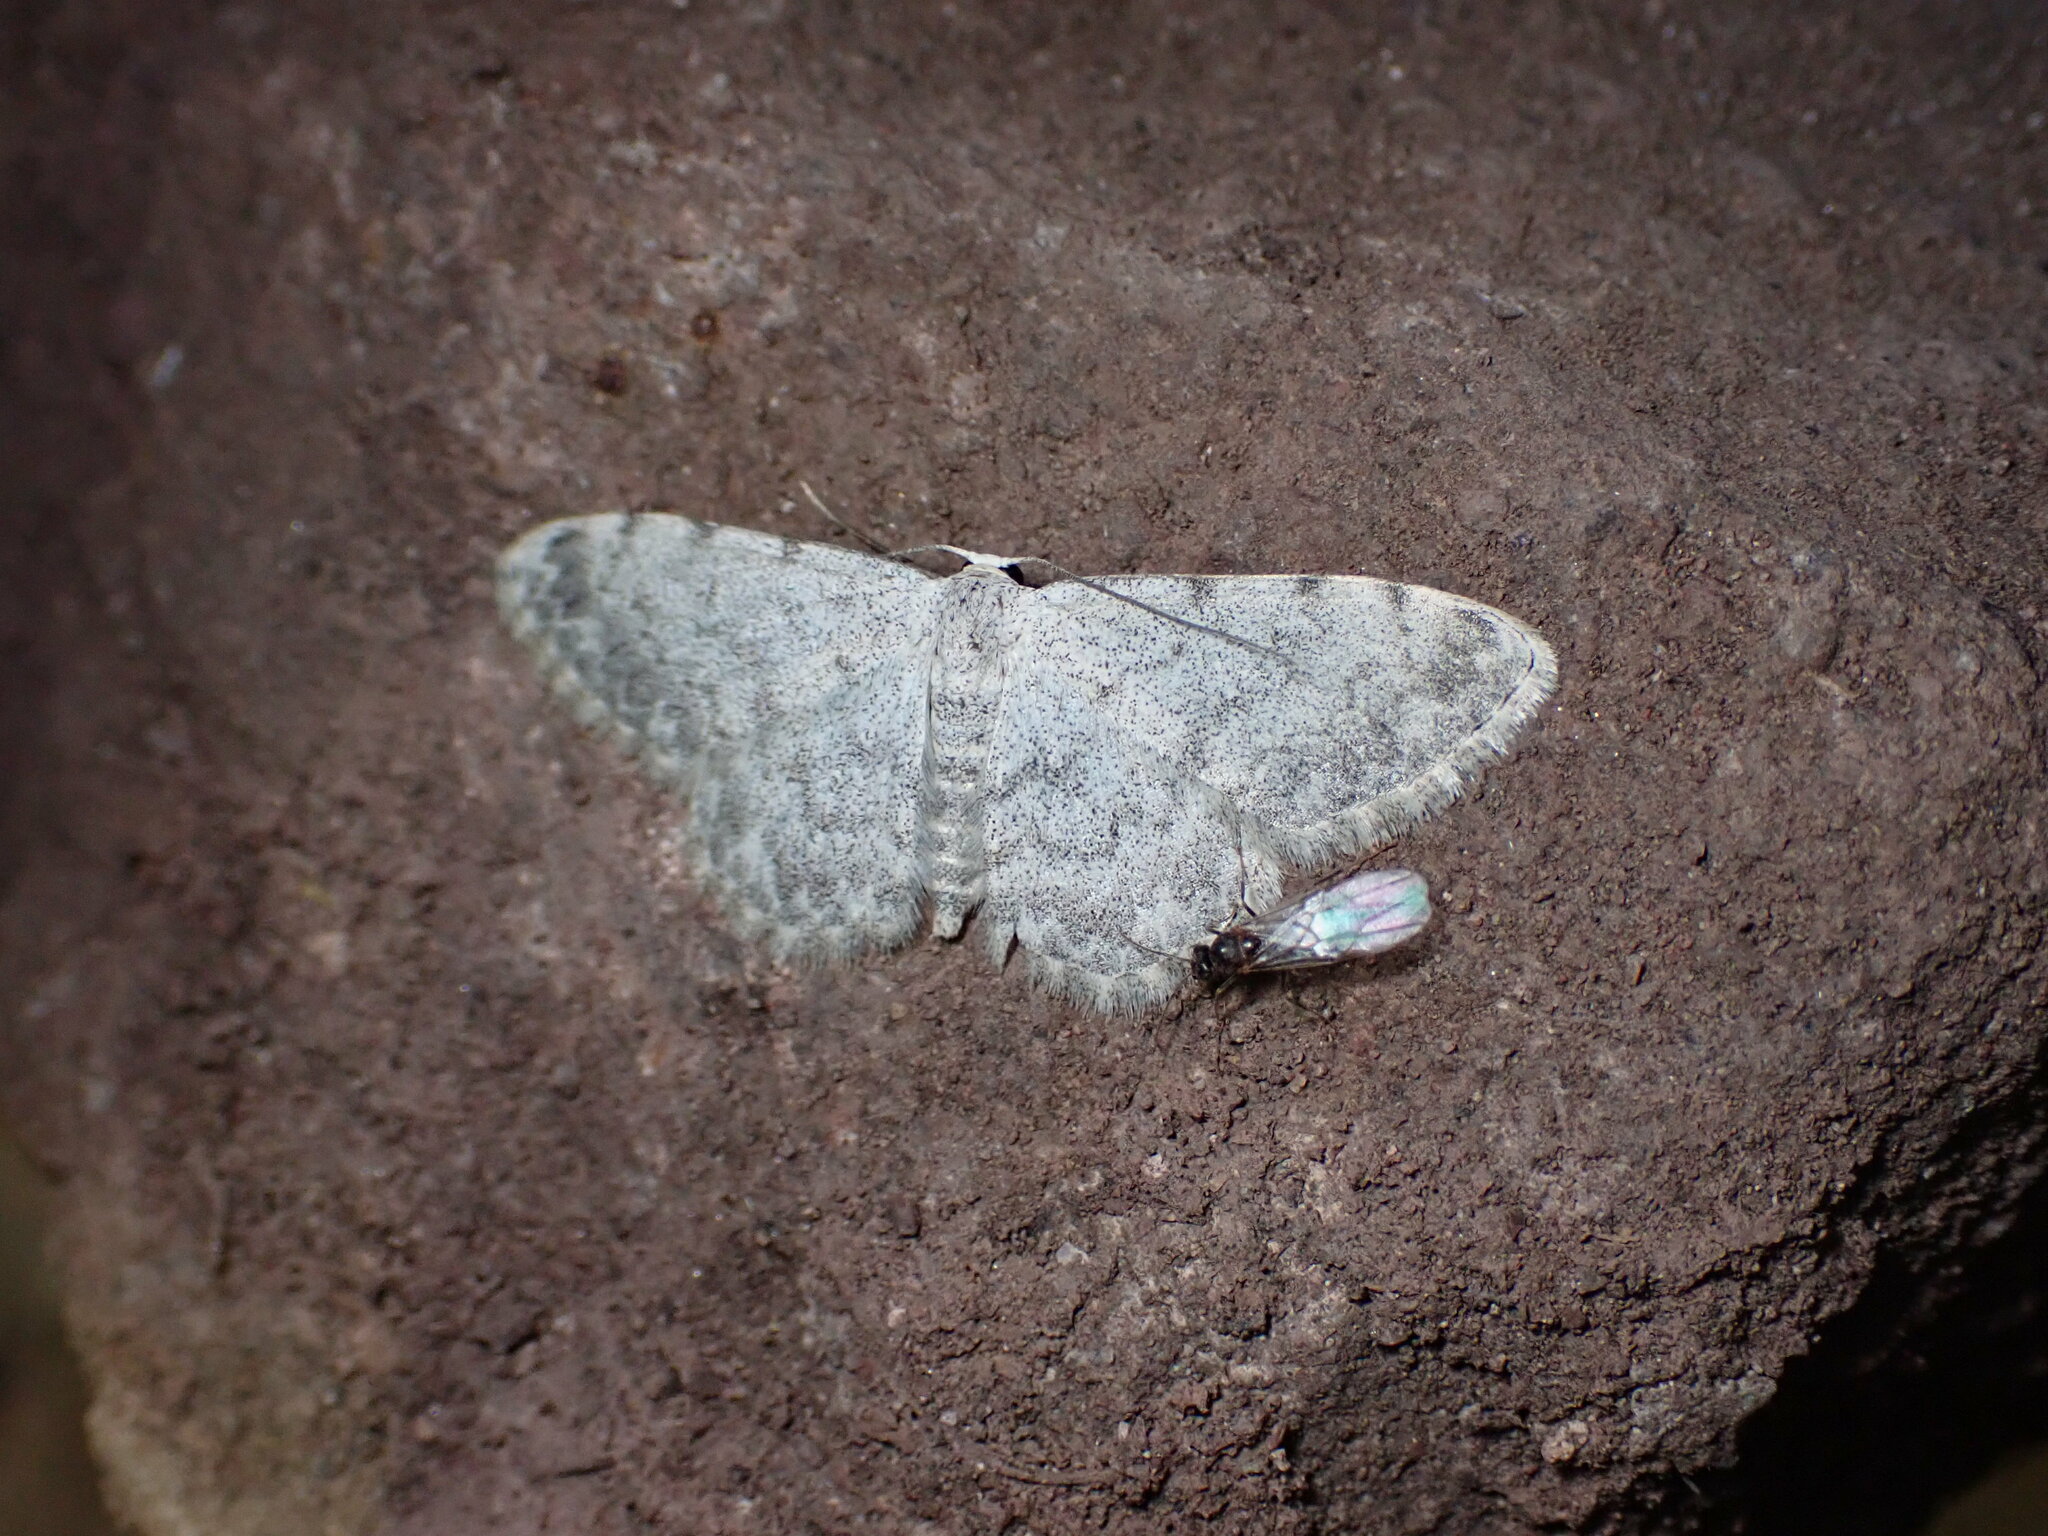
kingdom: Animalia
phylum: Arthropoda
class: Insecta
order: Lepidoptera
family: Geometridae
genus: Scopula
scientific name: Scopula submutata
